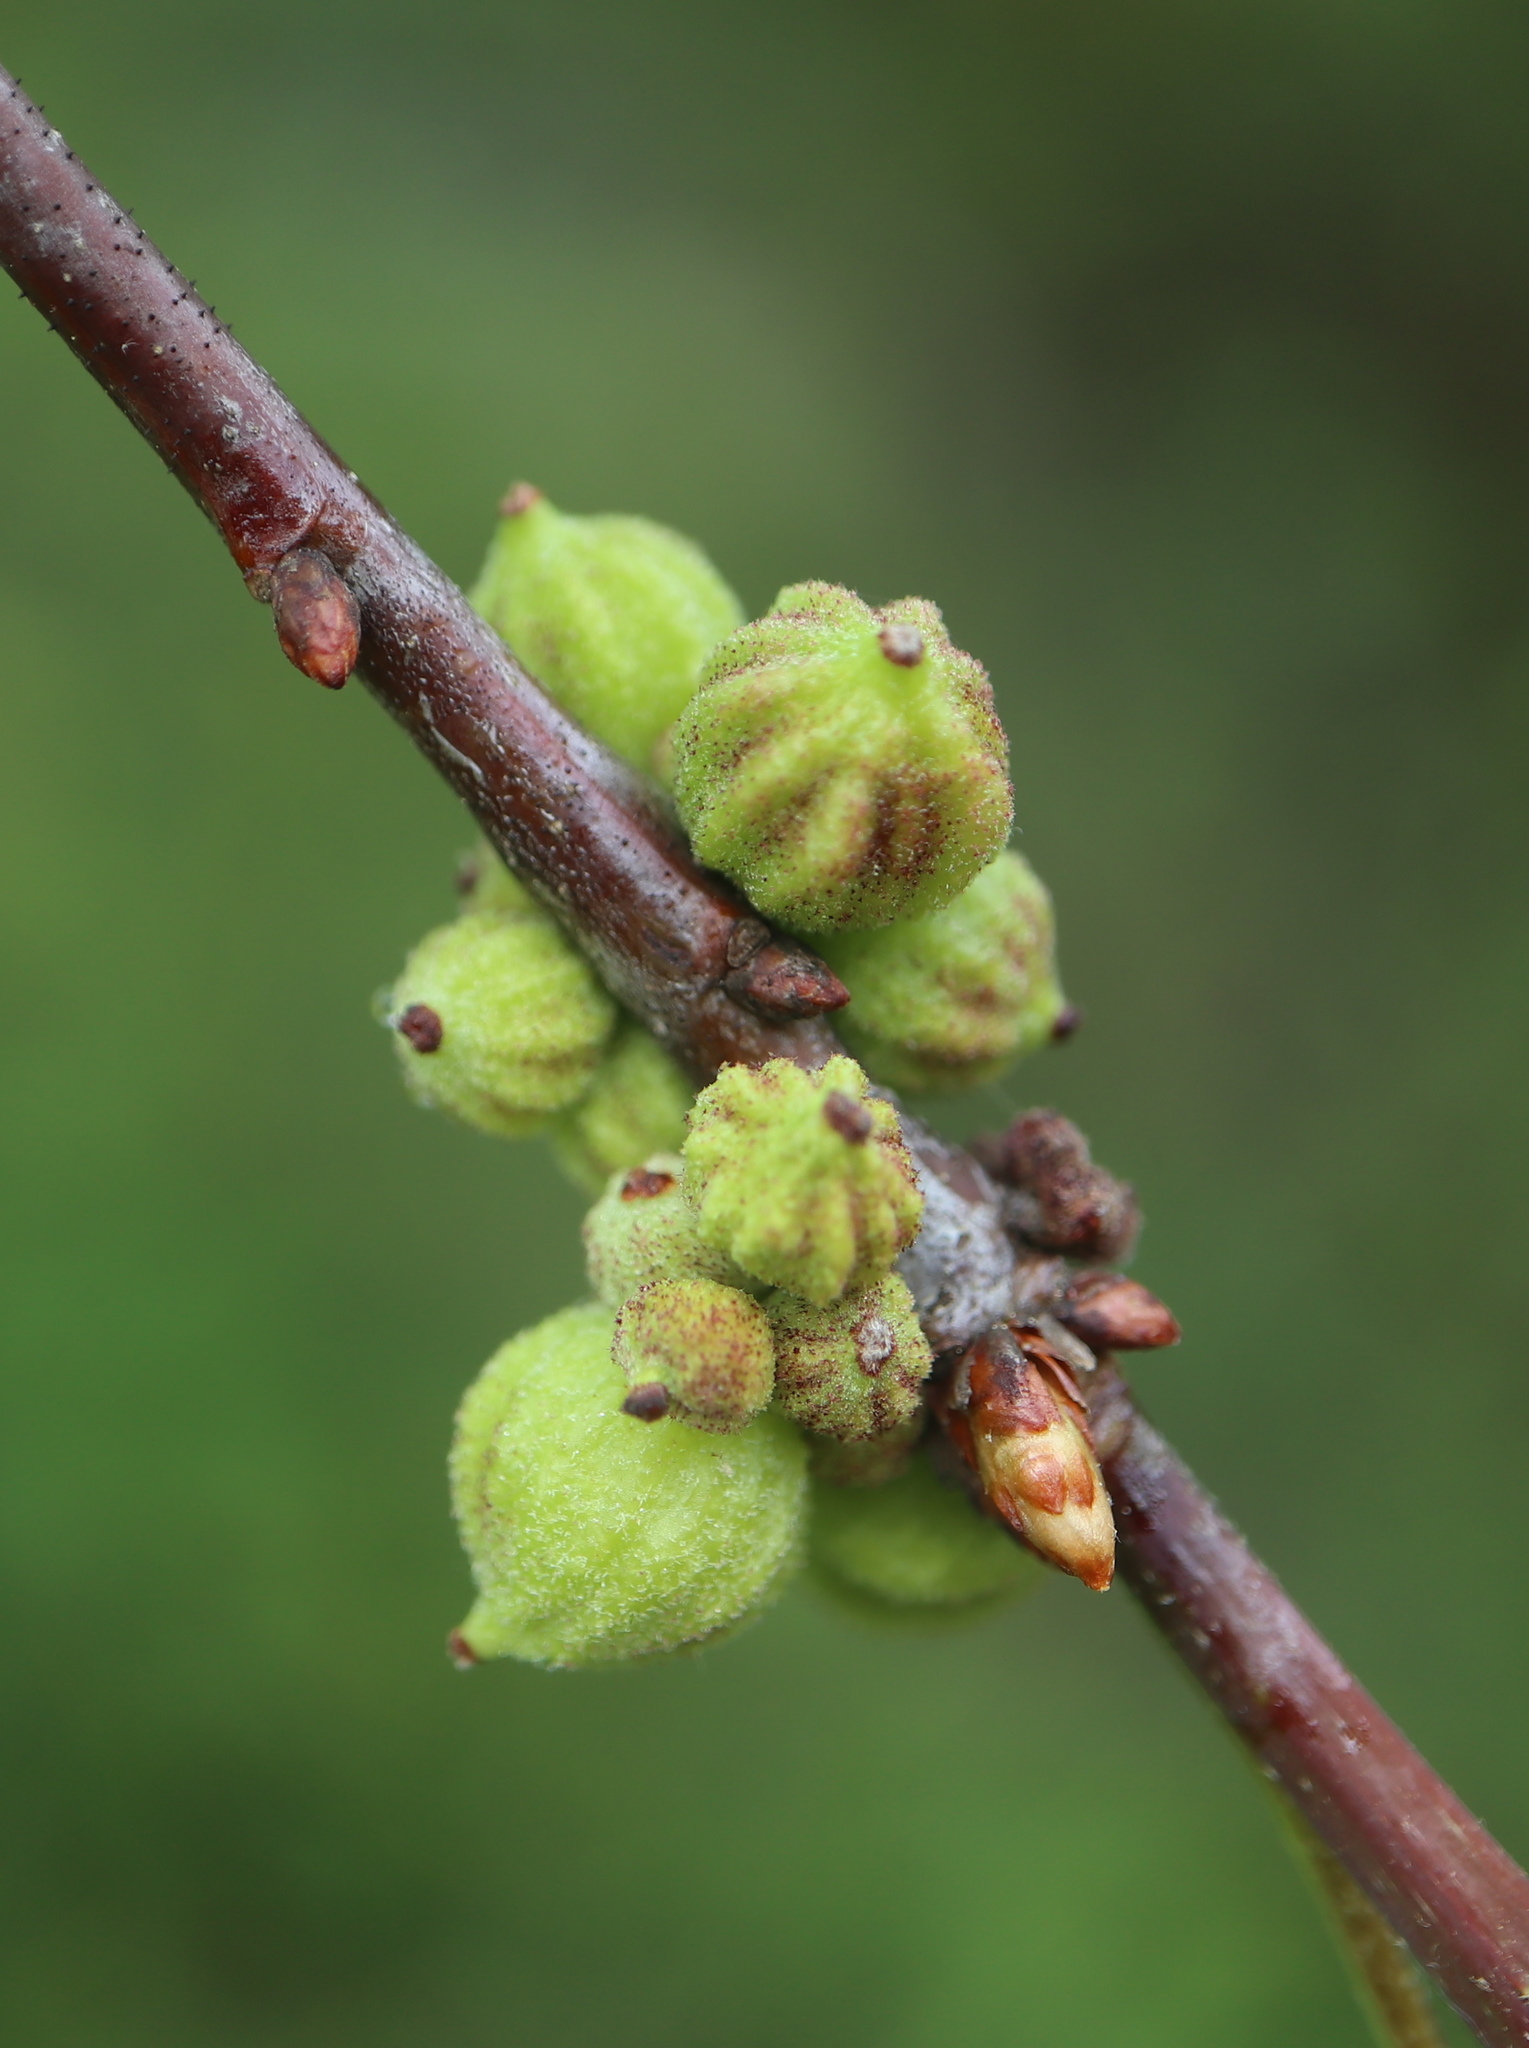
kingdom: Animalia
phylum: Arthropoda
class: Insecta
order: Hymenoptera
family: Cynipidae
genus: Andricus
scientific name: Andricus coronatus
